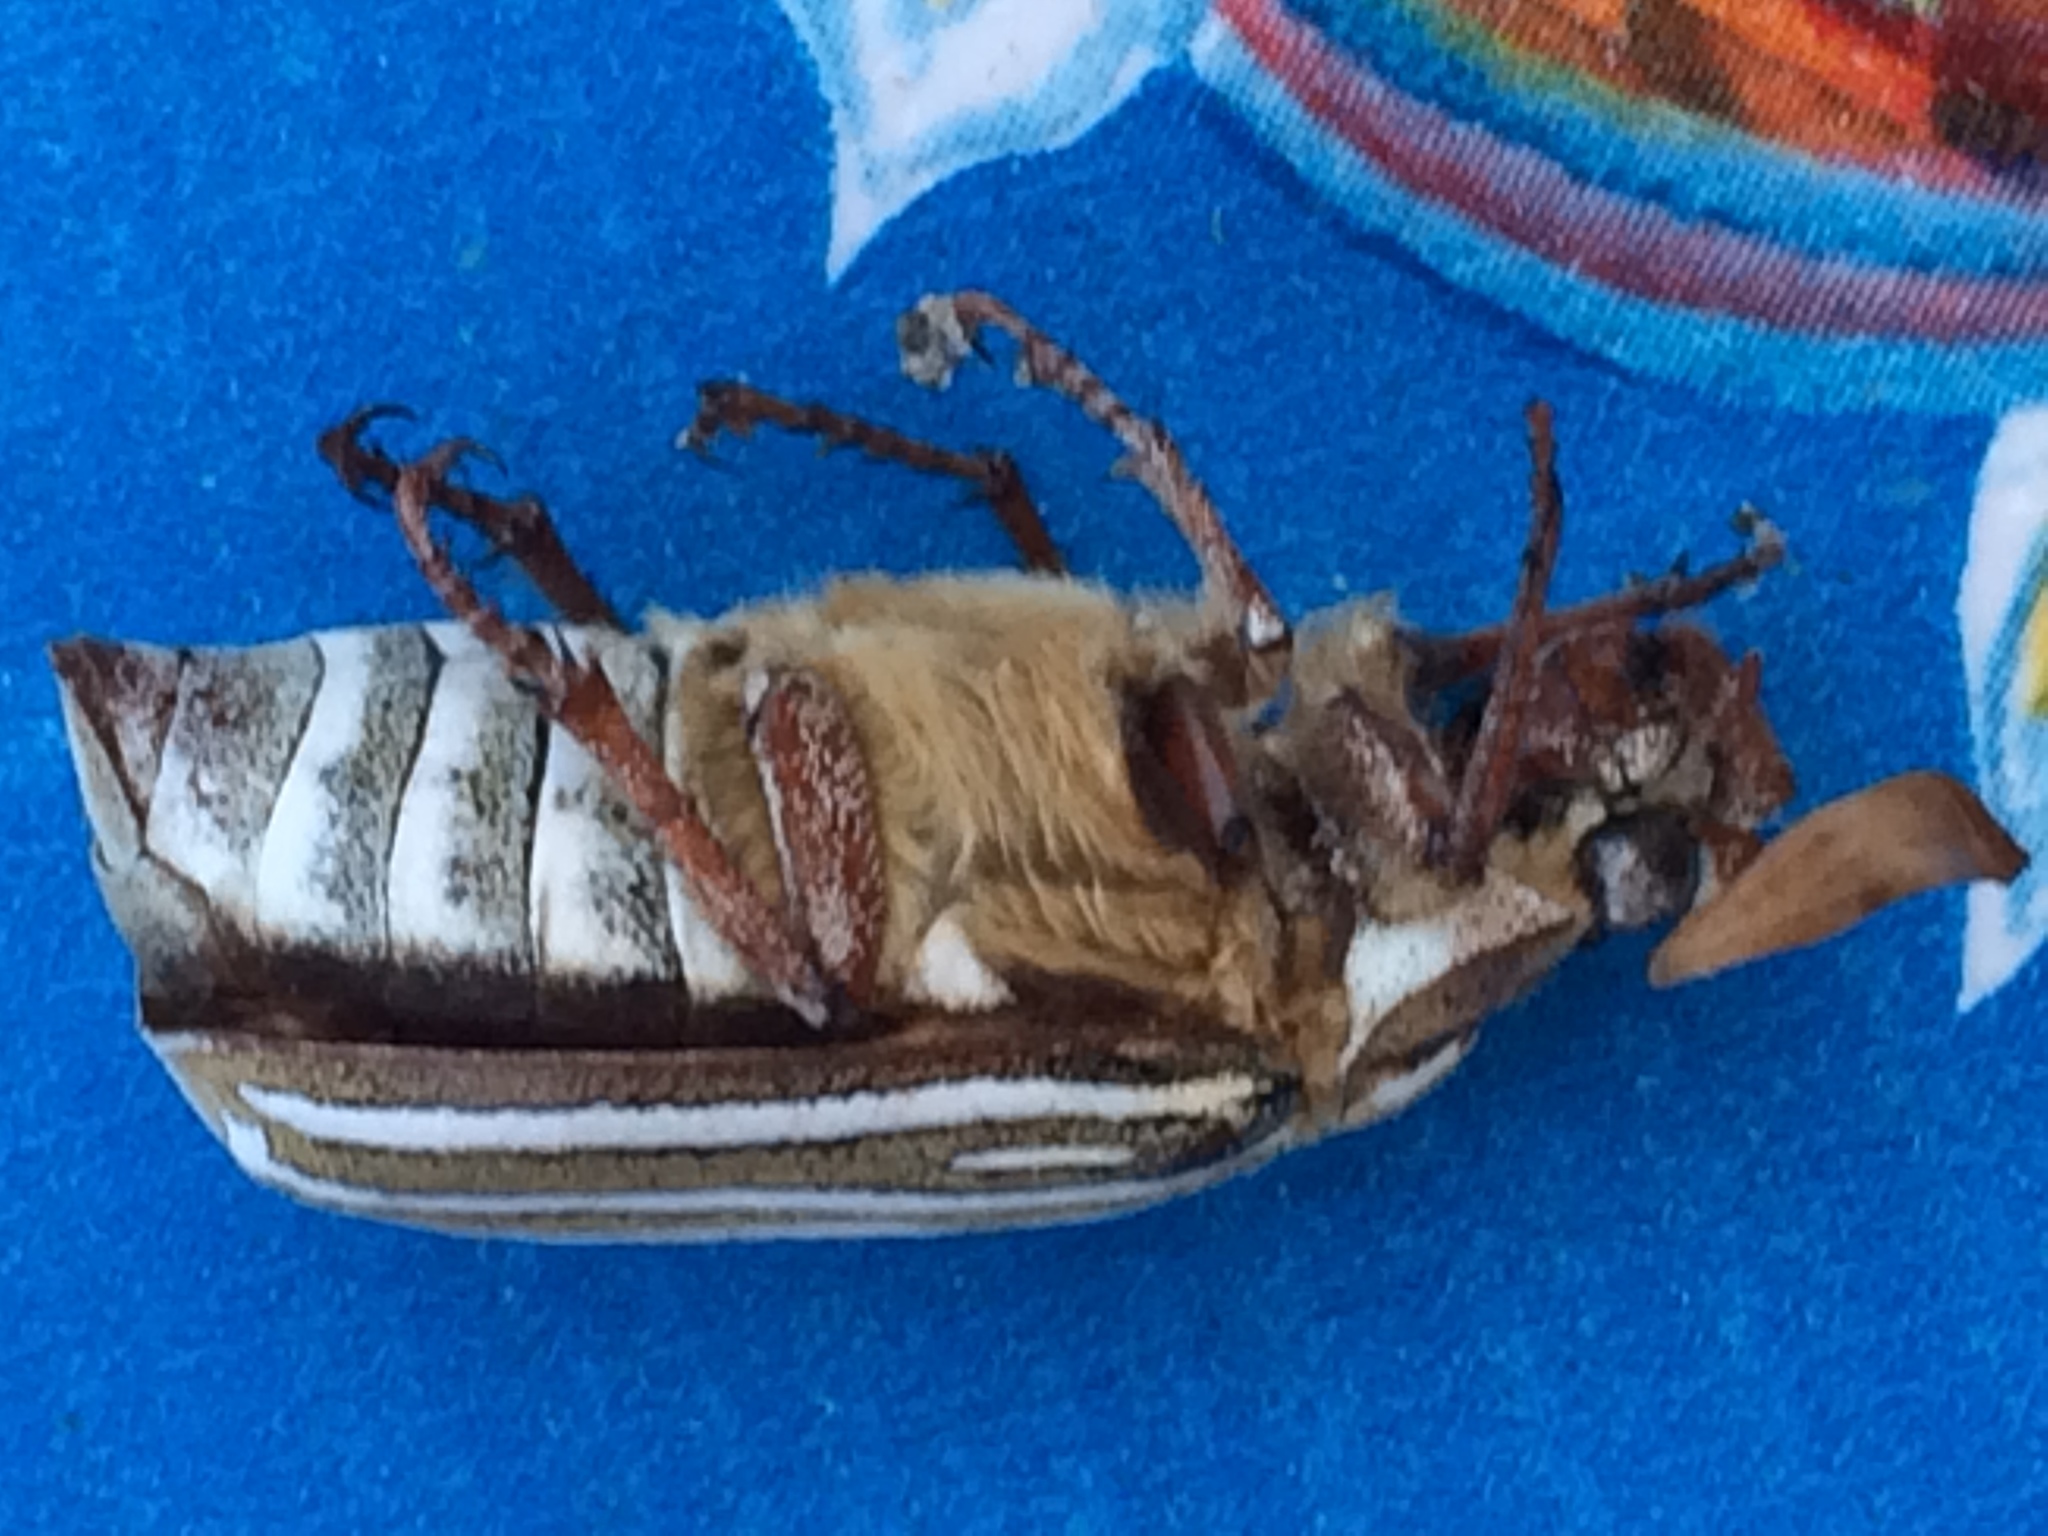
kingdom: Animalia
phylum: Arthropoda
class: Insecta
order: Coleoptera
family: Scarabaeidae
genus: Polyphylla
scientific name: Polyphylla decemlineata
